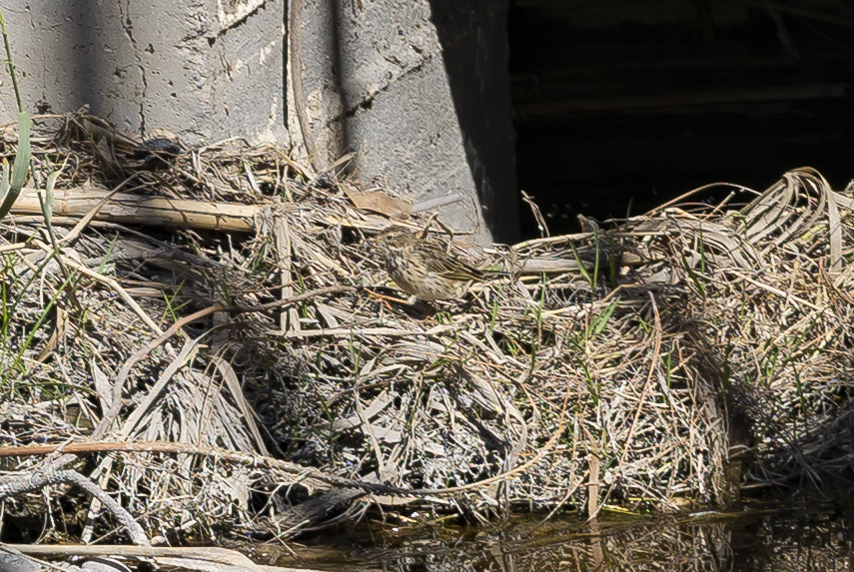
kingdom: Animalia
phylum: Chordata
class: Aves
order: Passeriformes
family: Motacillidae
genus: Anthus
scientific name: Anthus pratensis
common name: Meadow pipit
